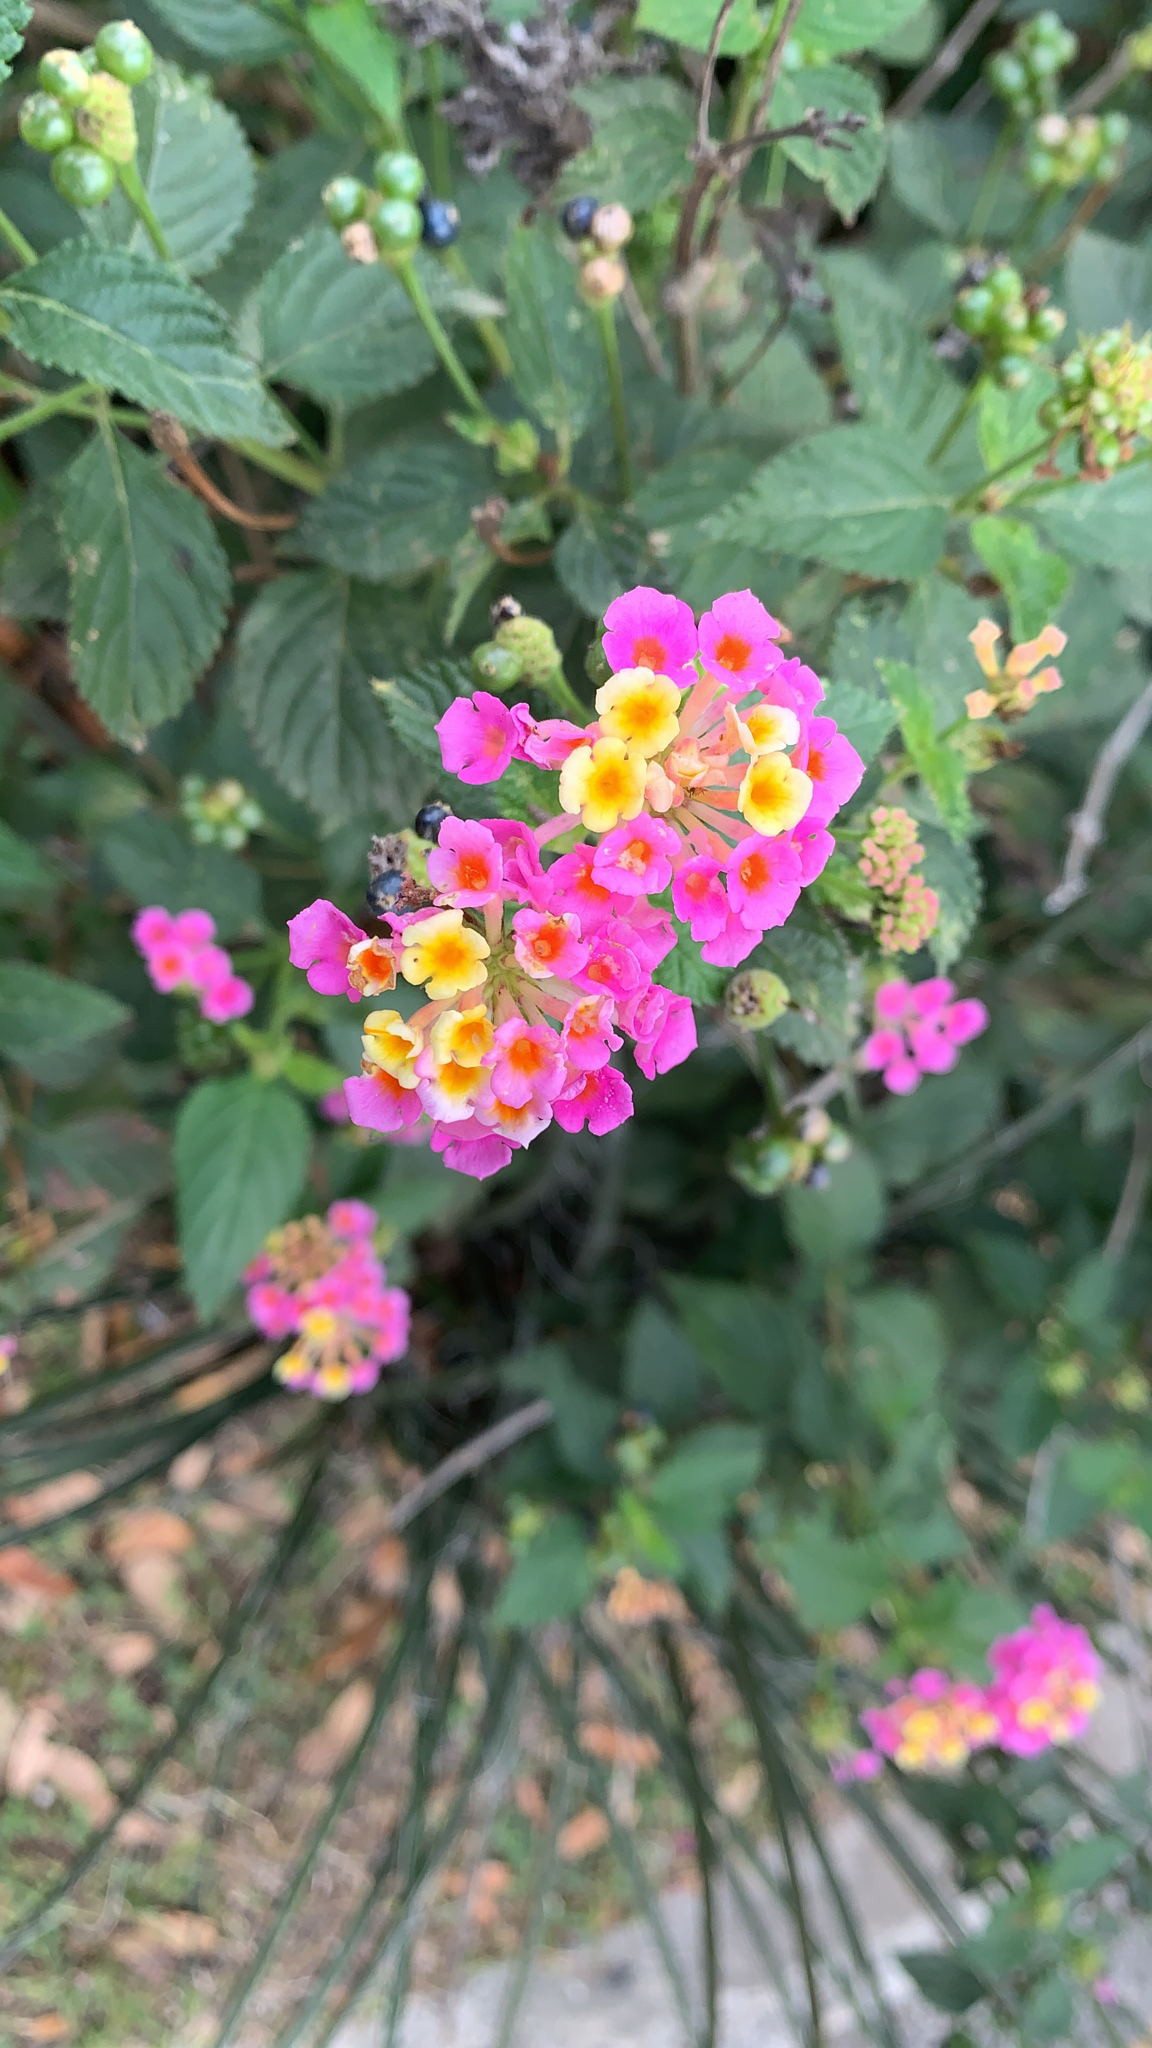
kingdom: Plantae
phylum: Tracheophyta
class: Magnoliopsida
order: Lamiales
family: Verbenaceae
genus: Lantana
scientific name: Lantana strigocamara
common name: Lantana
